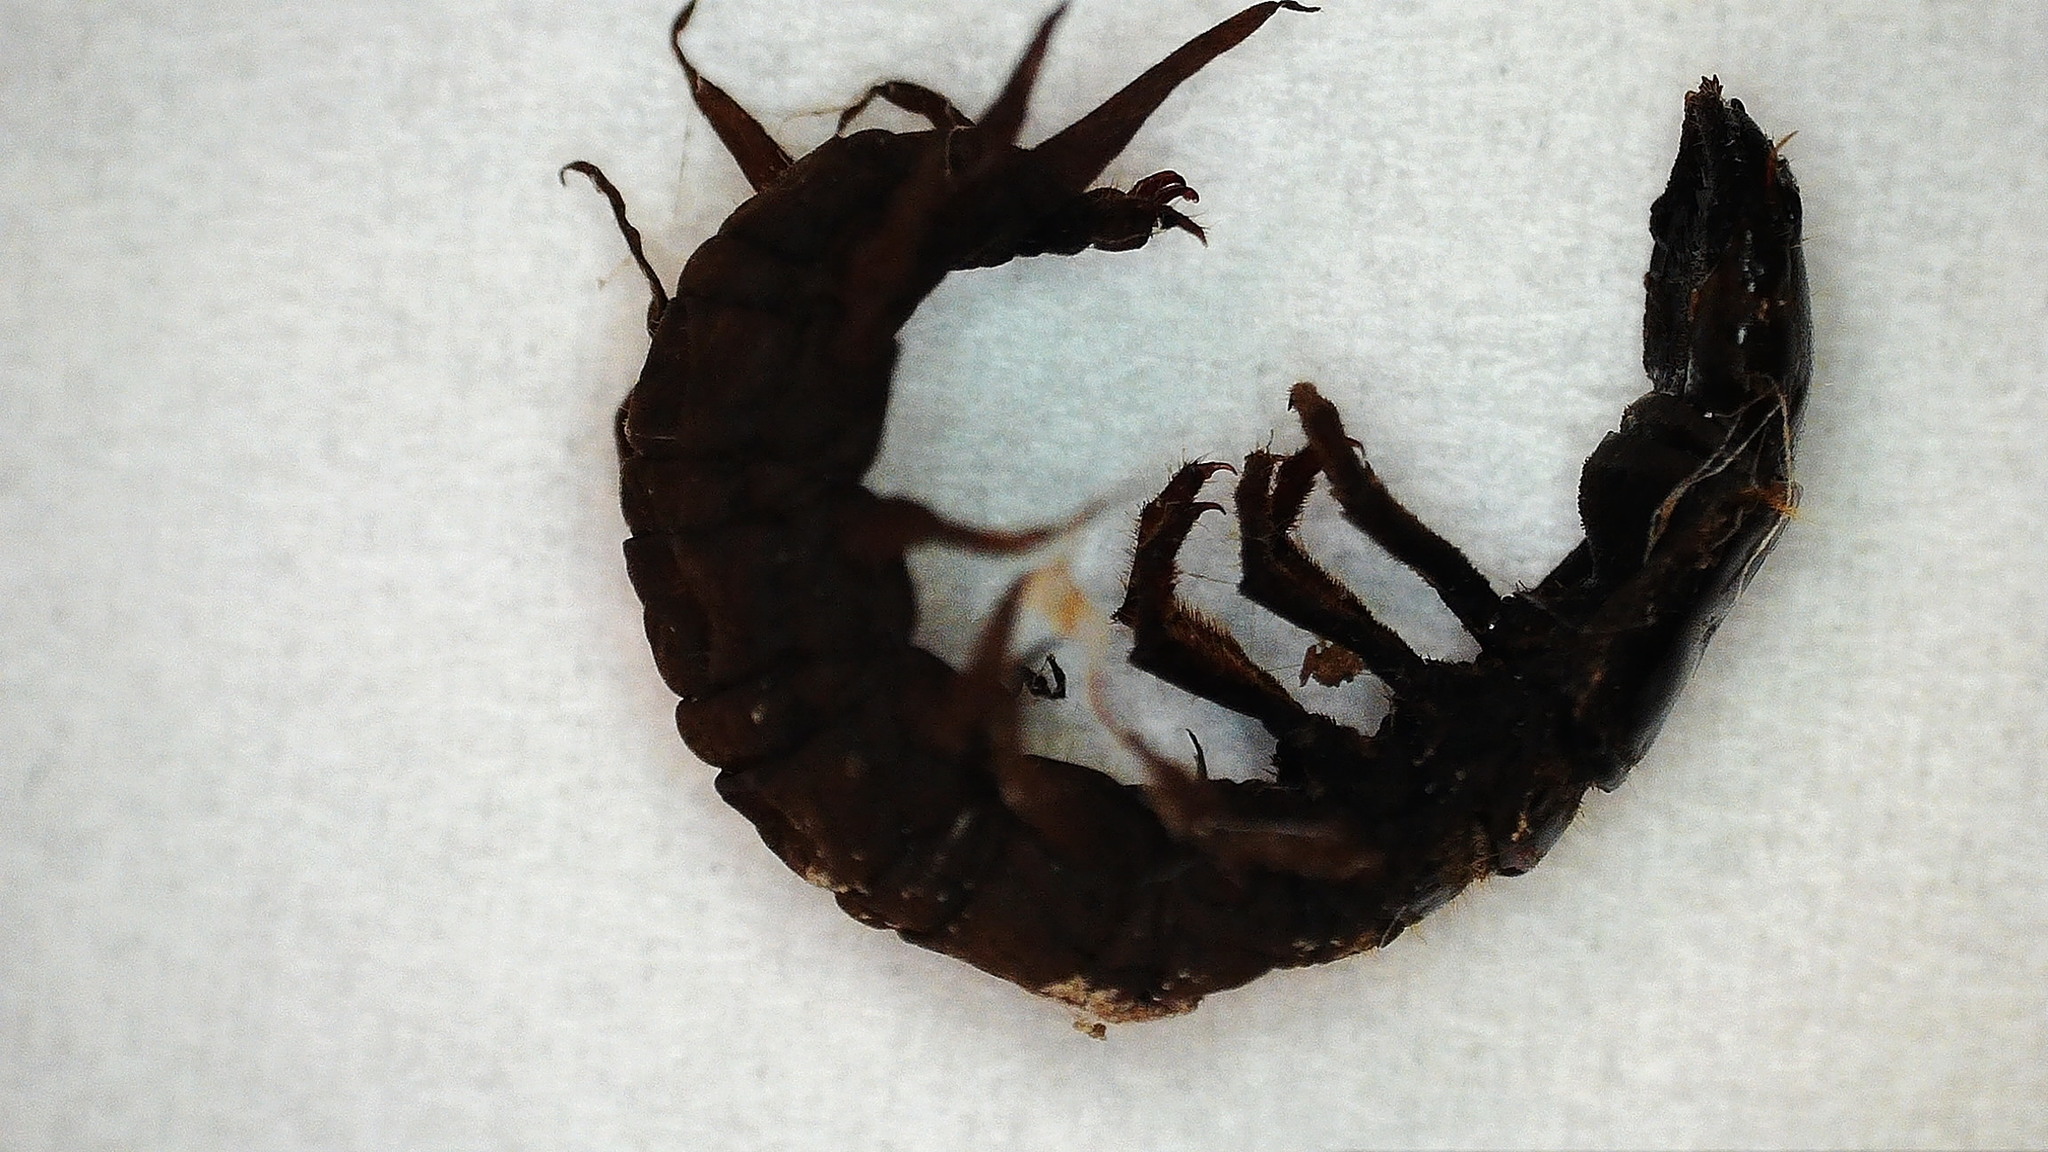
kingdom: Animalia
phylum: Arthropoda
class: Insecta
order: Megaloptera
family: Corydalidae
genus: Archichauliodes
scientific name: Archichauliodes diversus
